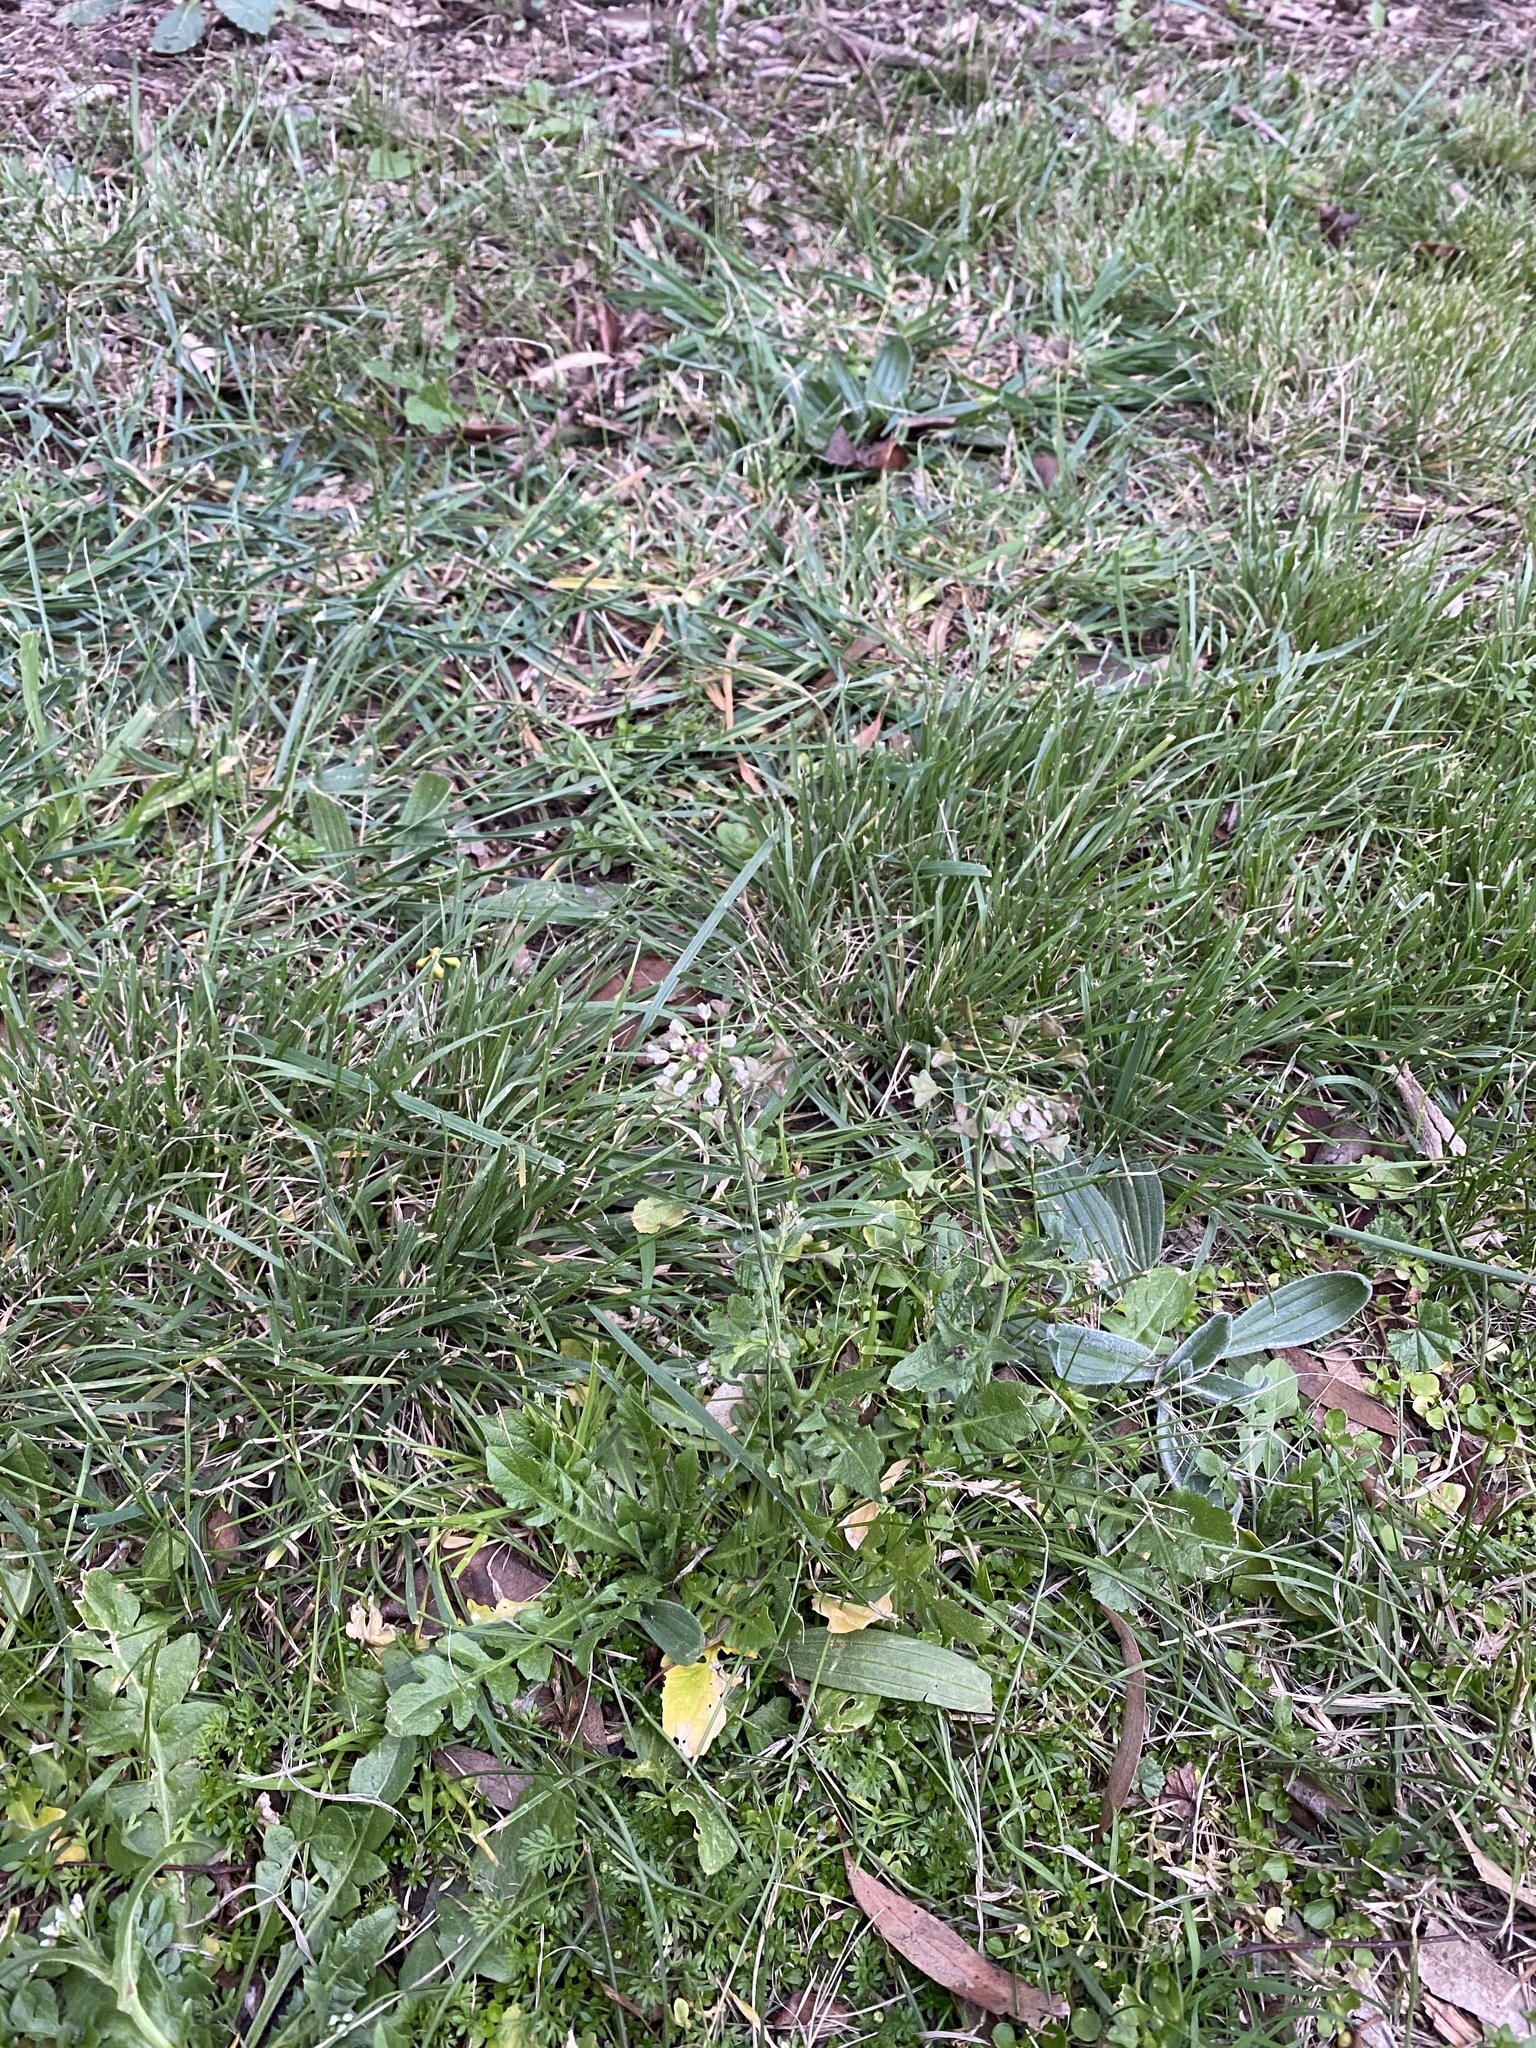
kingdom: Plantae
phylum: Tracheophyta
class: Magnoliopsida
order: Brassicales
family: Brassicaceae
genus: Capsella
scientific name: Capsella bursa-pastoris
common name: Shepherd's purse
